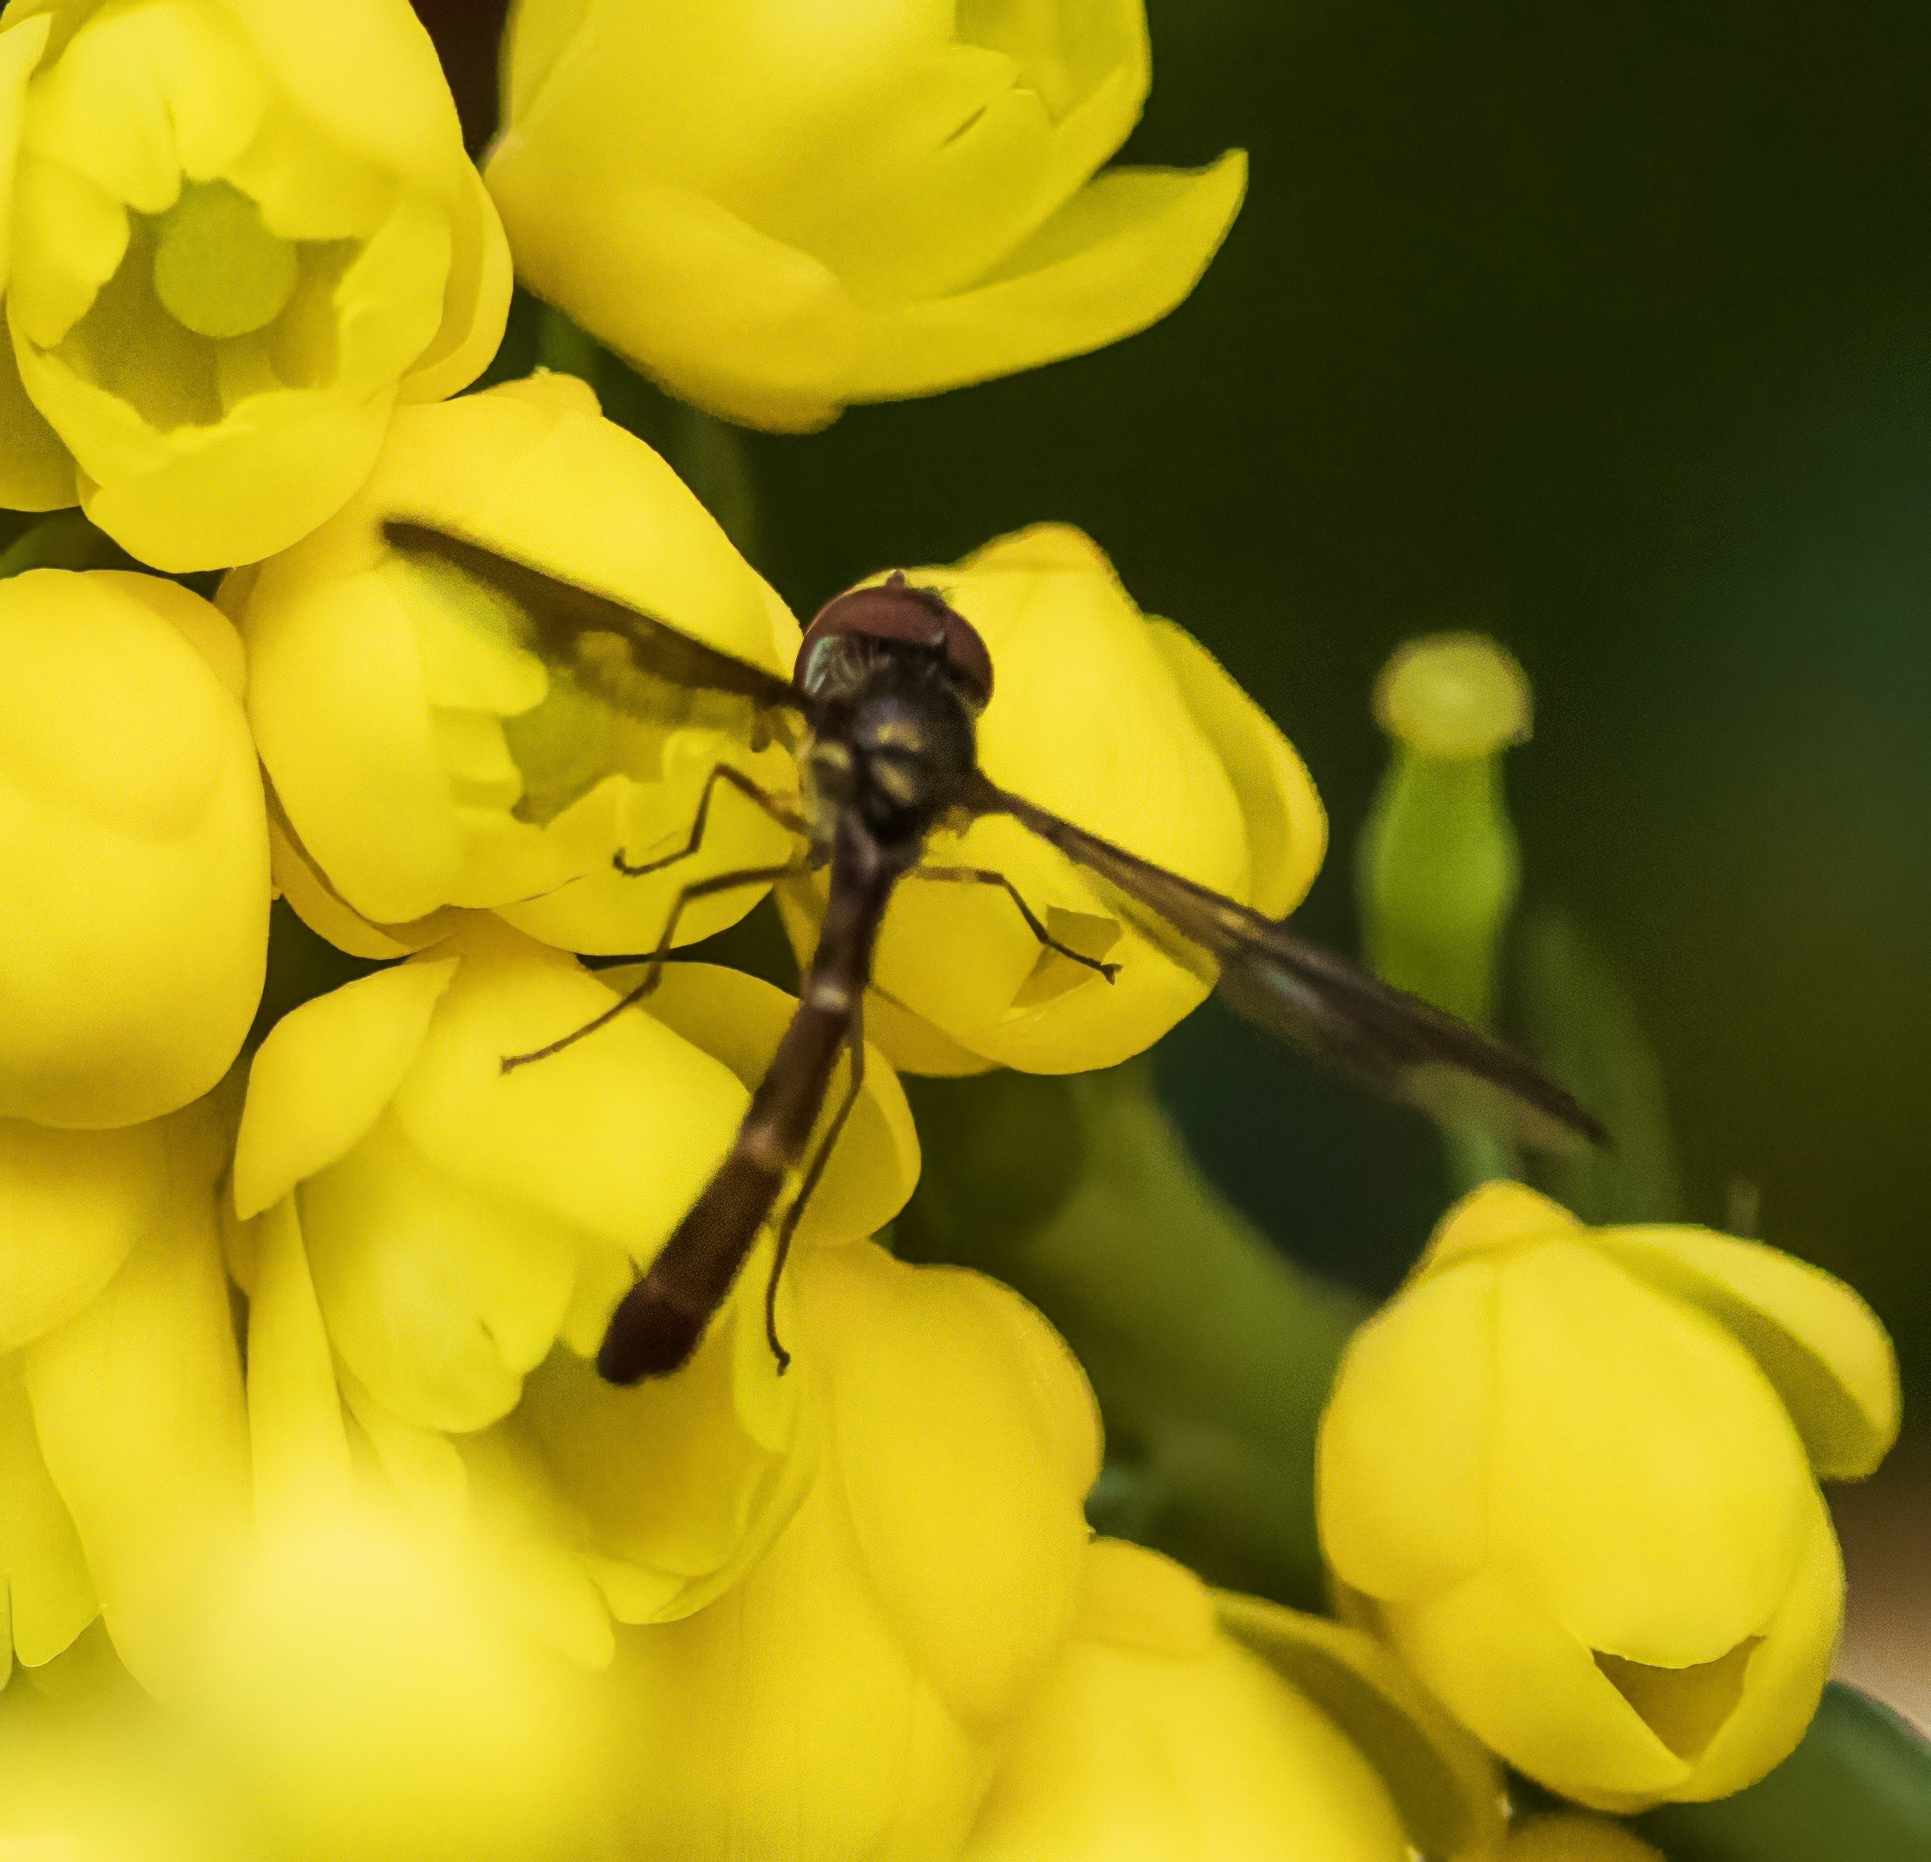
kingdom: Animalia
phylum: Arthropoda
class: Insecta
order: Diptera
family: Syrphidae
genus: Ocyptamus
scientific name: Ocyptamus fuscipennis
